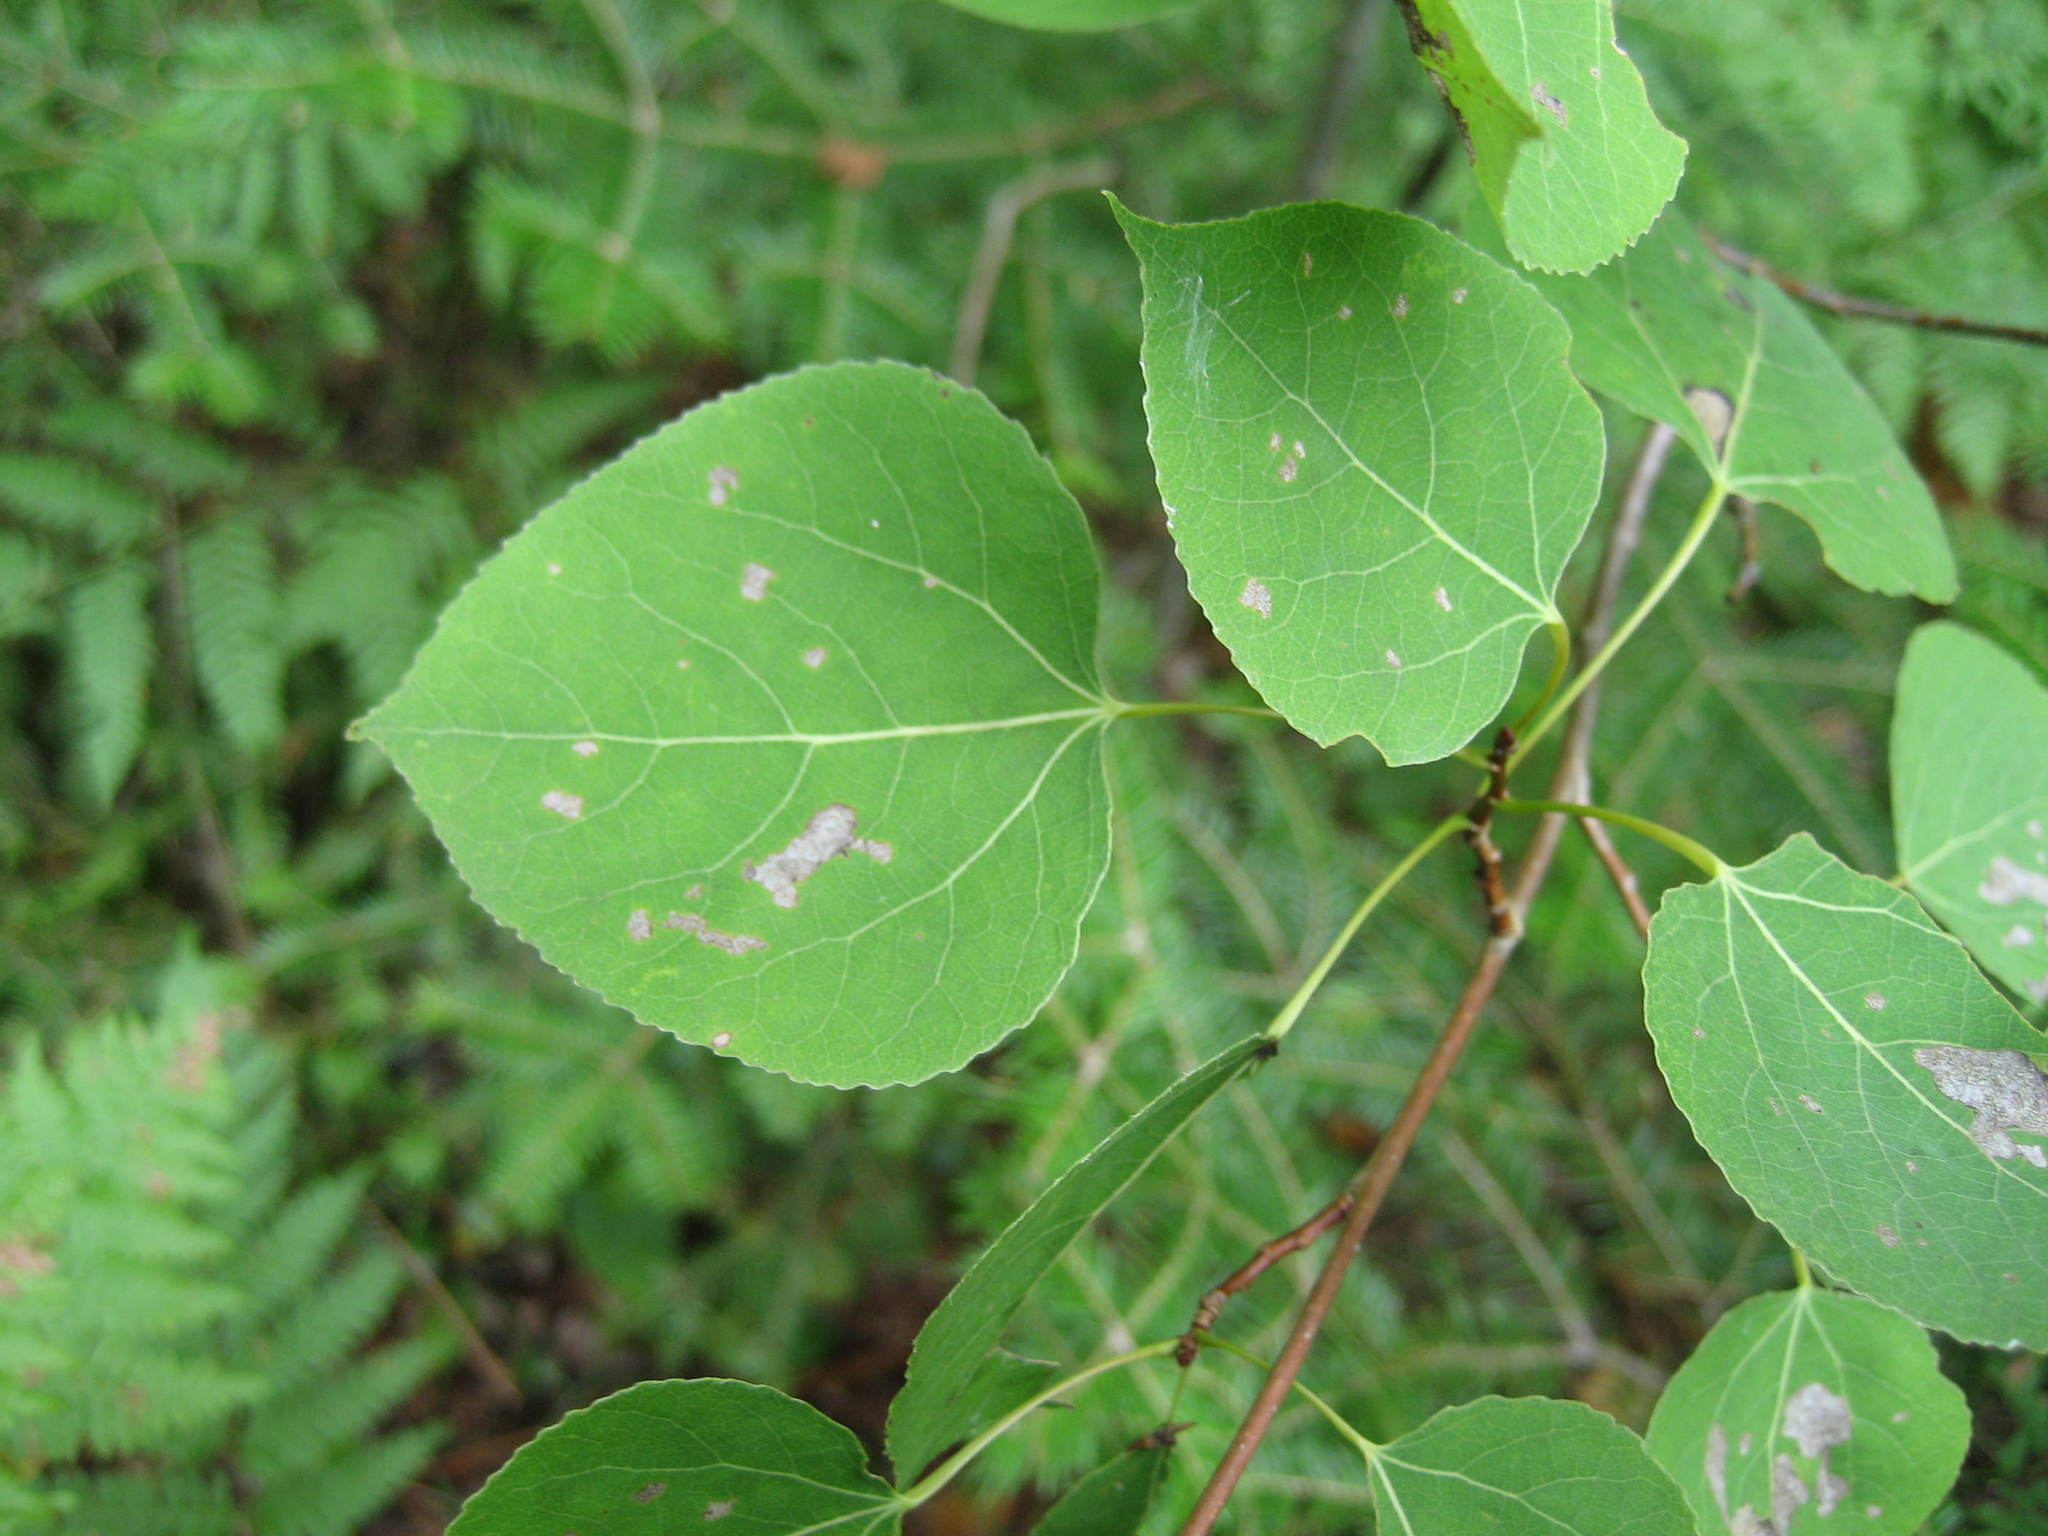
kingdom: Plantae
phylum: Tracheophyta
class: Magnoliopsida
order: Malpighiales
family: Salicaceae
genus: Populus
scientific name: Populus tremuloides
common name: Quaking aspen
